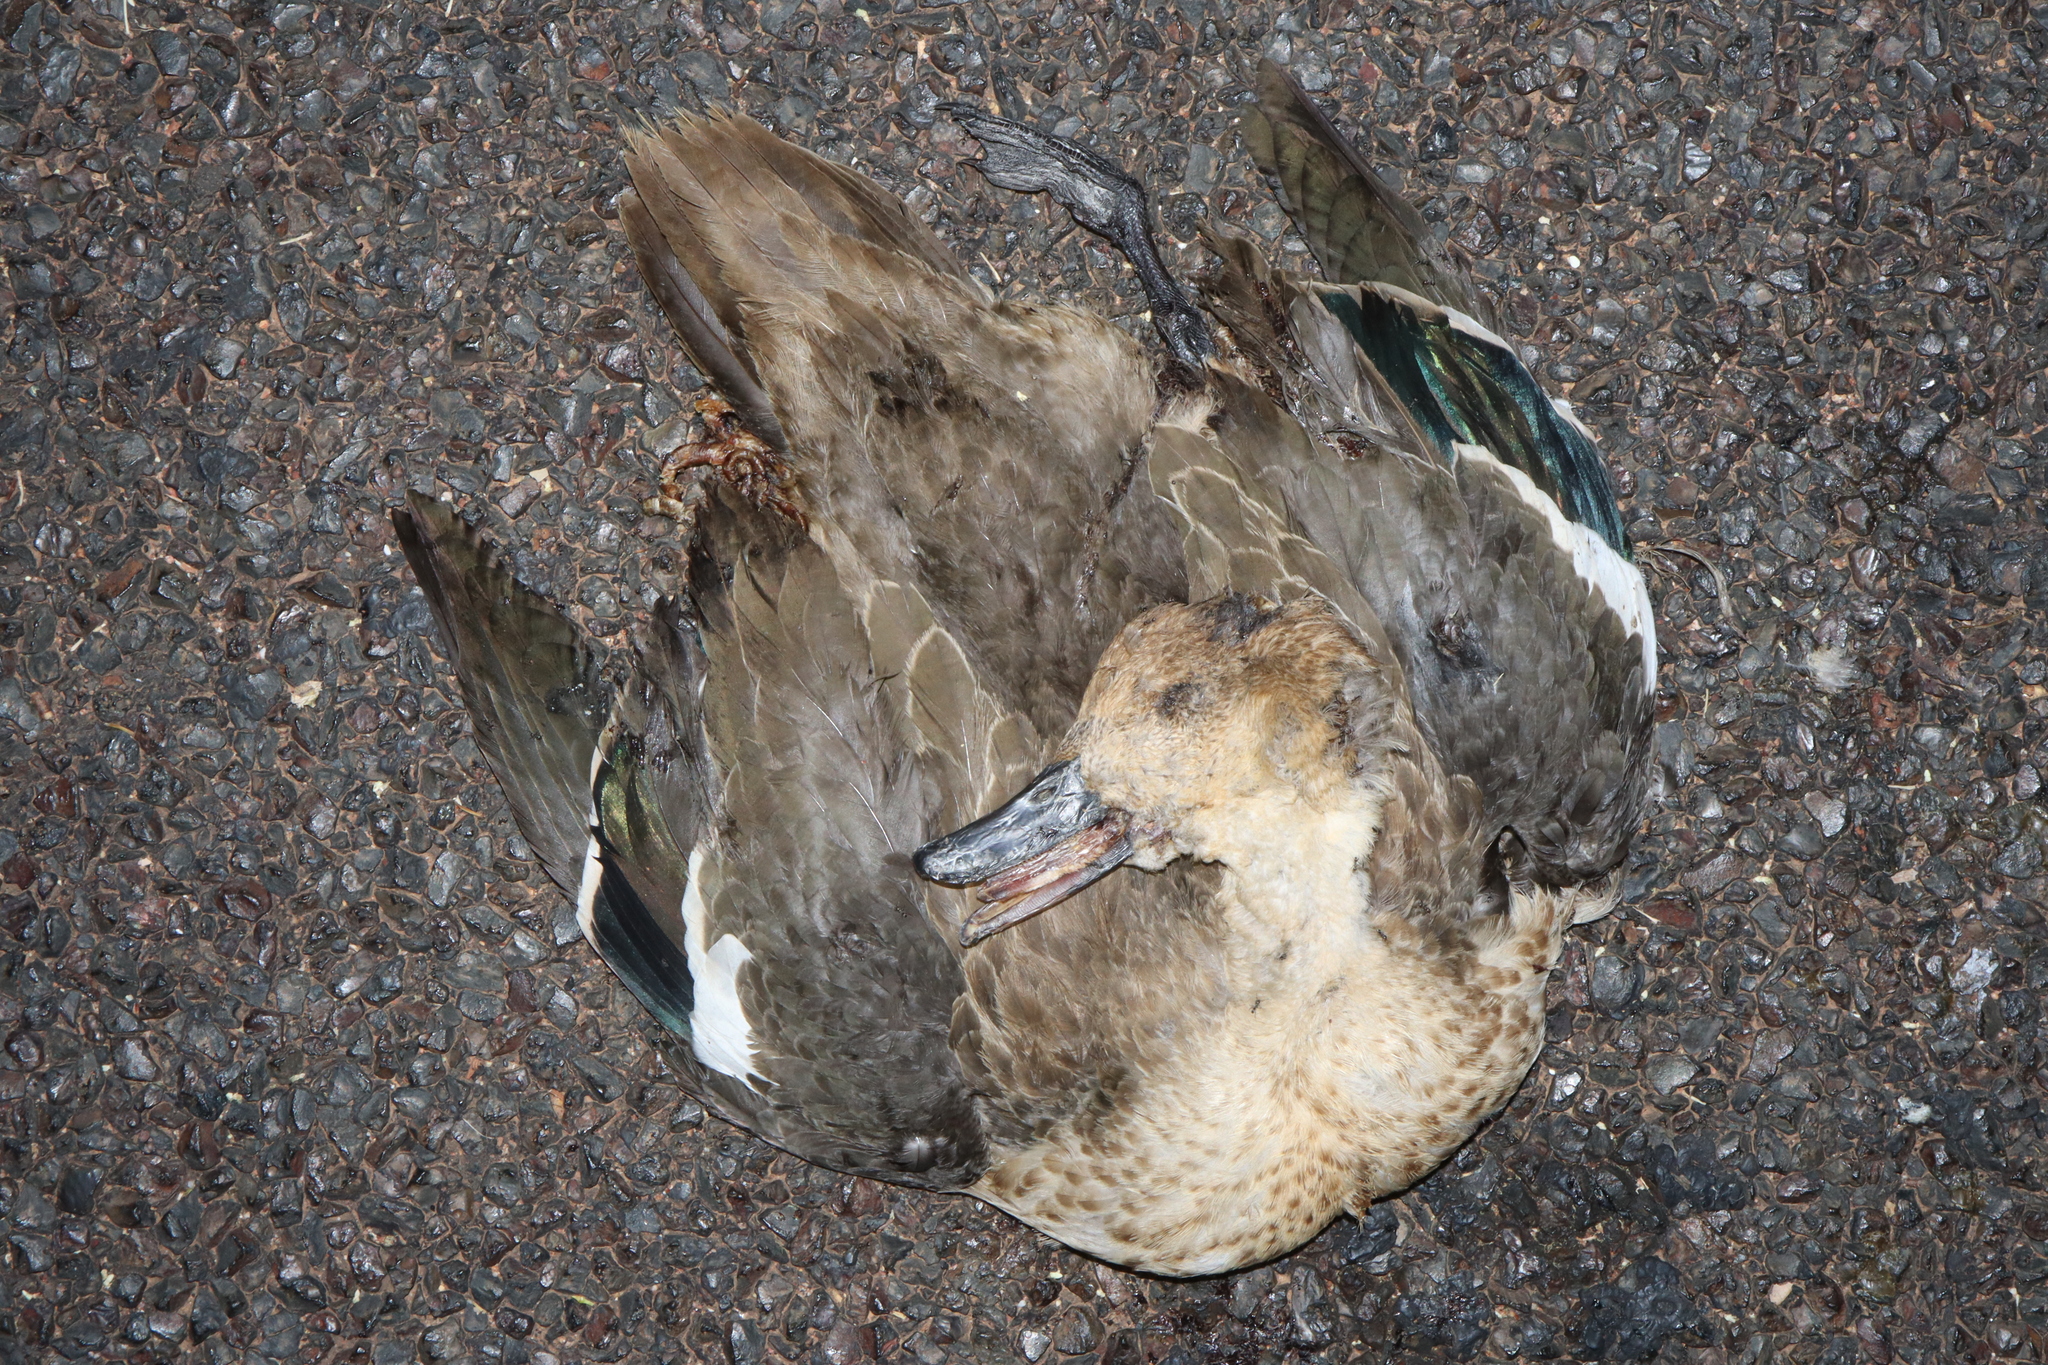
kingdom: Animalia
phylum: Chordata
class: Aves
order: Anseriformes
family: Anatidae
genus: Anas
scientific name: Anas gracilis
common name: Grey teal
